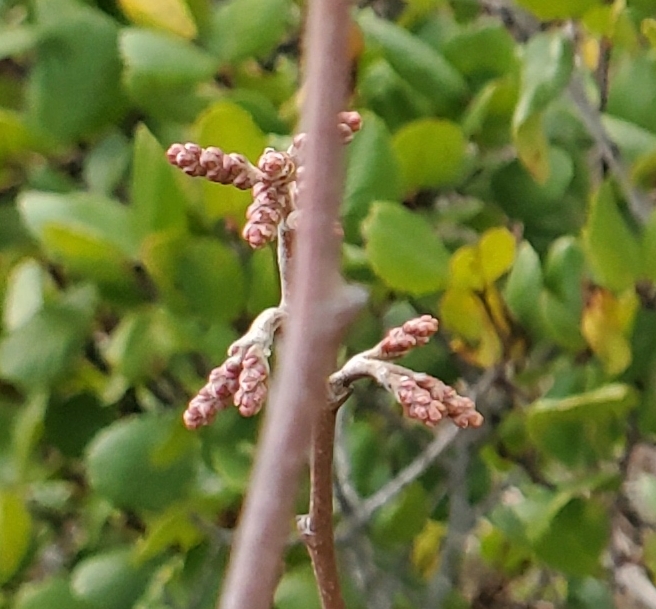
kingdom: Plantae
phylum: Tracheophyta
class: Magnoliopsida
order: Sapindales
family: Anacardiaceae
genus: Rhus
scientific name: Rhus aromatica
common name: Aromatic sumac
